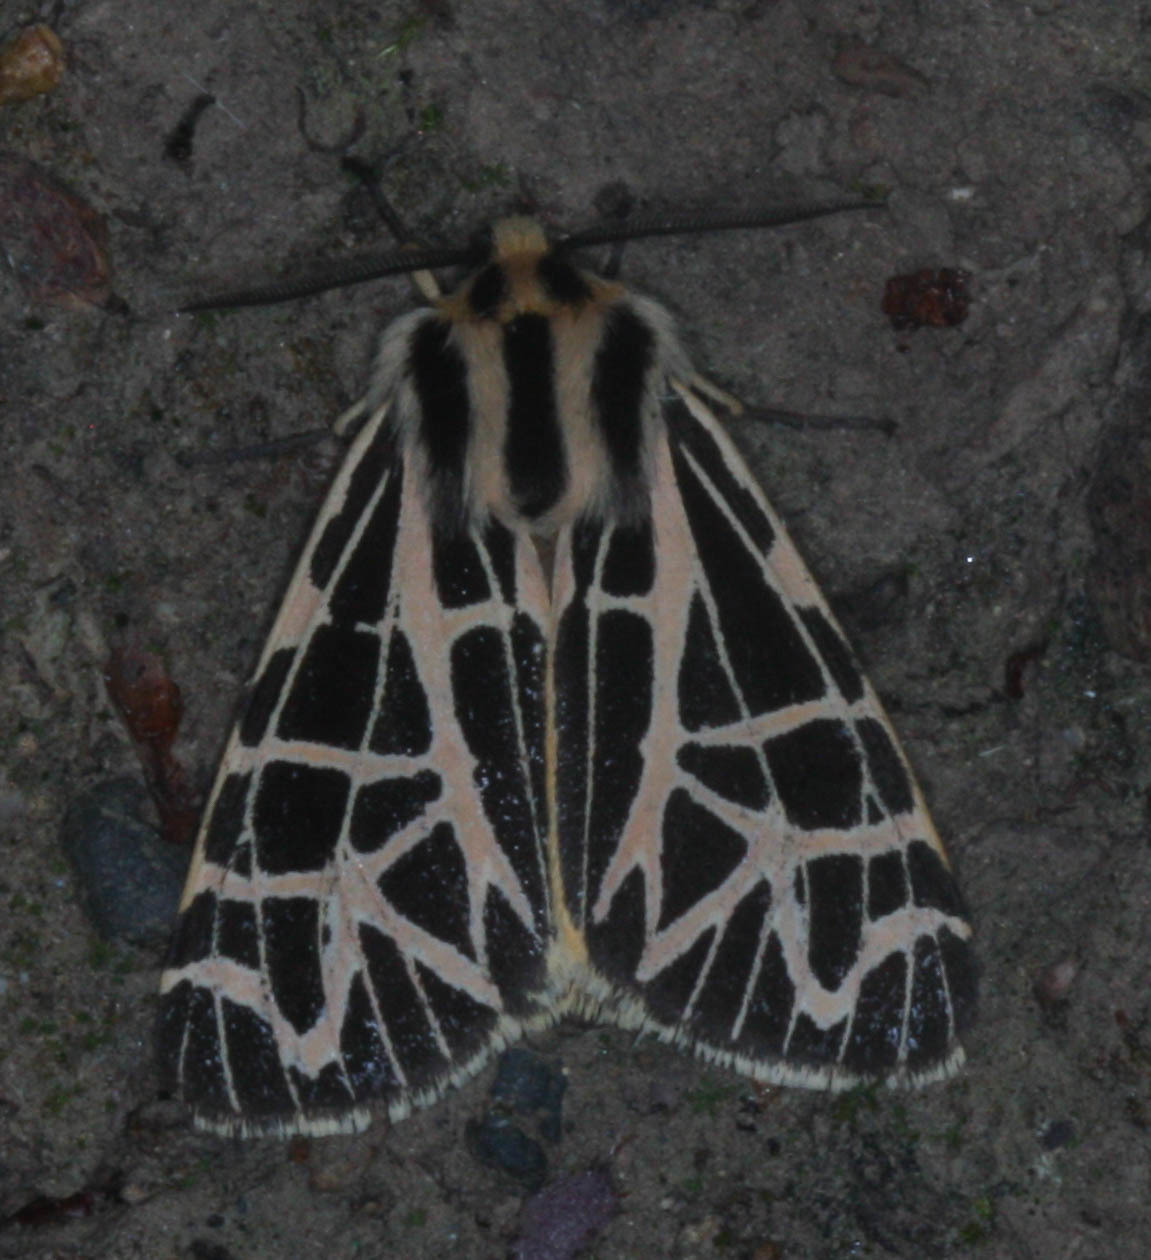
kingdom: Animalia
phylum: Arthropoda
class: Insecta
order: Lepidoptera
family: Erebidae
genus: Apantesis
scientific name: Apantesis
